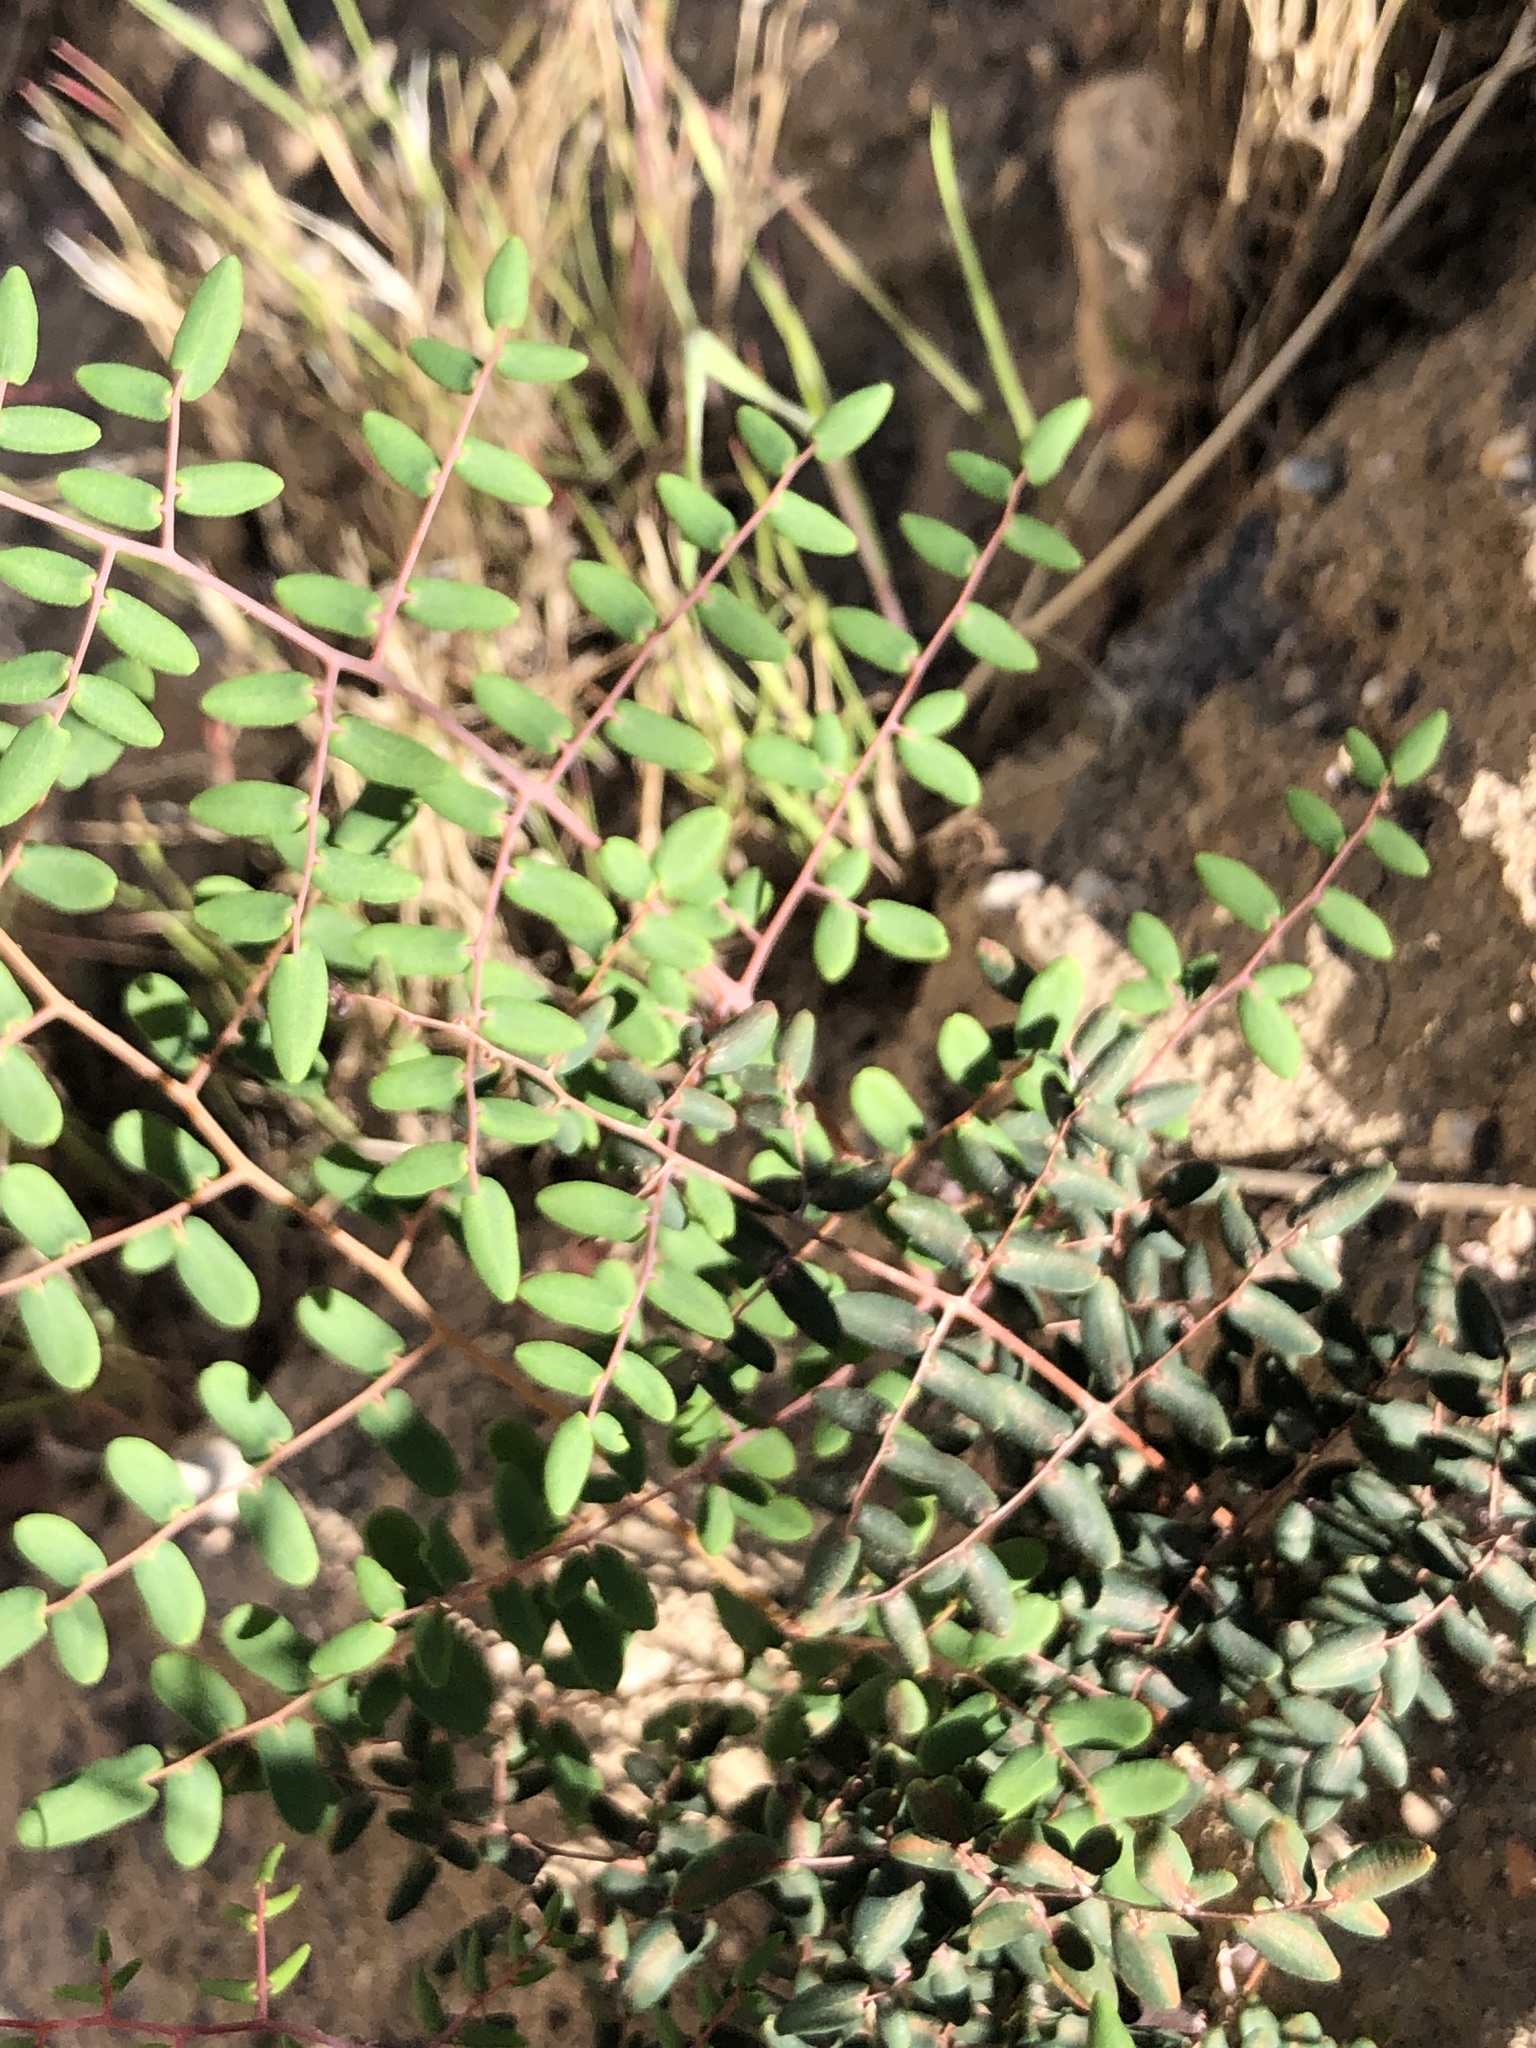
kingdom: Plantae
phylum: Tracheophyta
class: Polypodiopsida
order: Polypodiales
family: Pteridaceae
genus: Pellaea
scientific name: Pellaea andromedifolia
